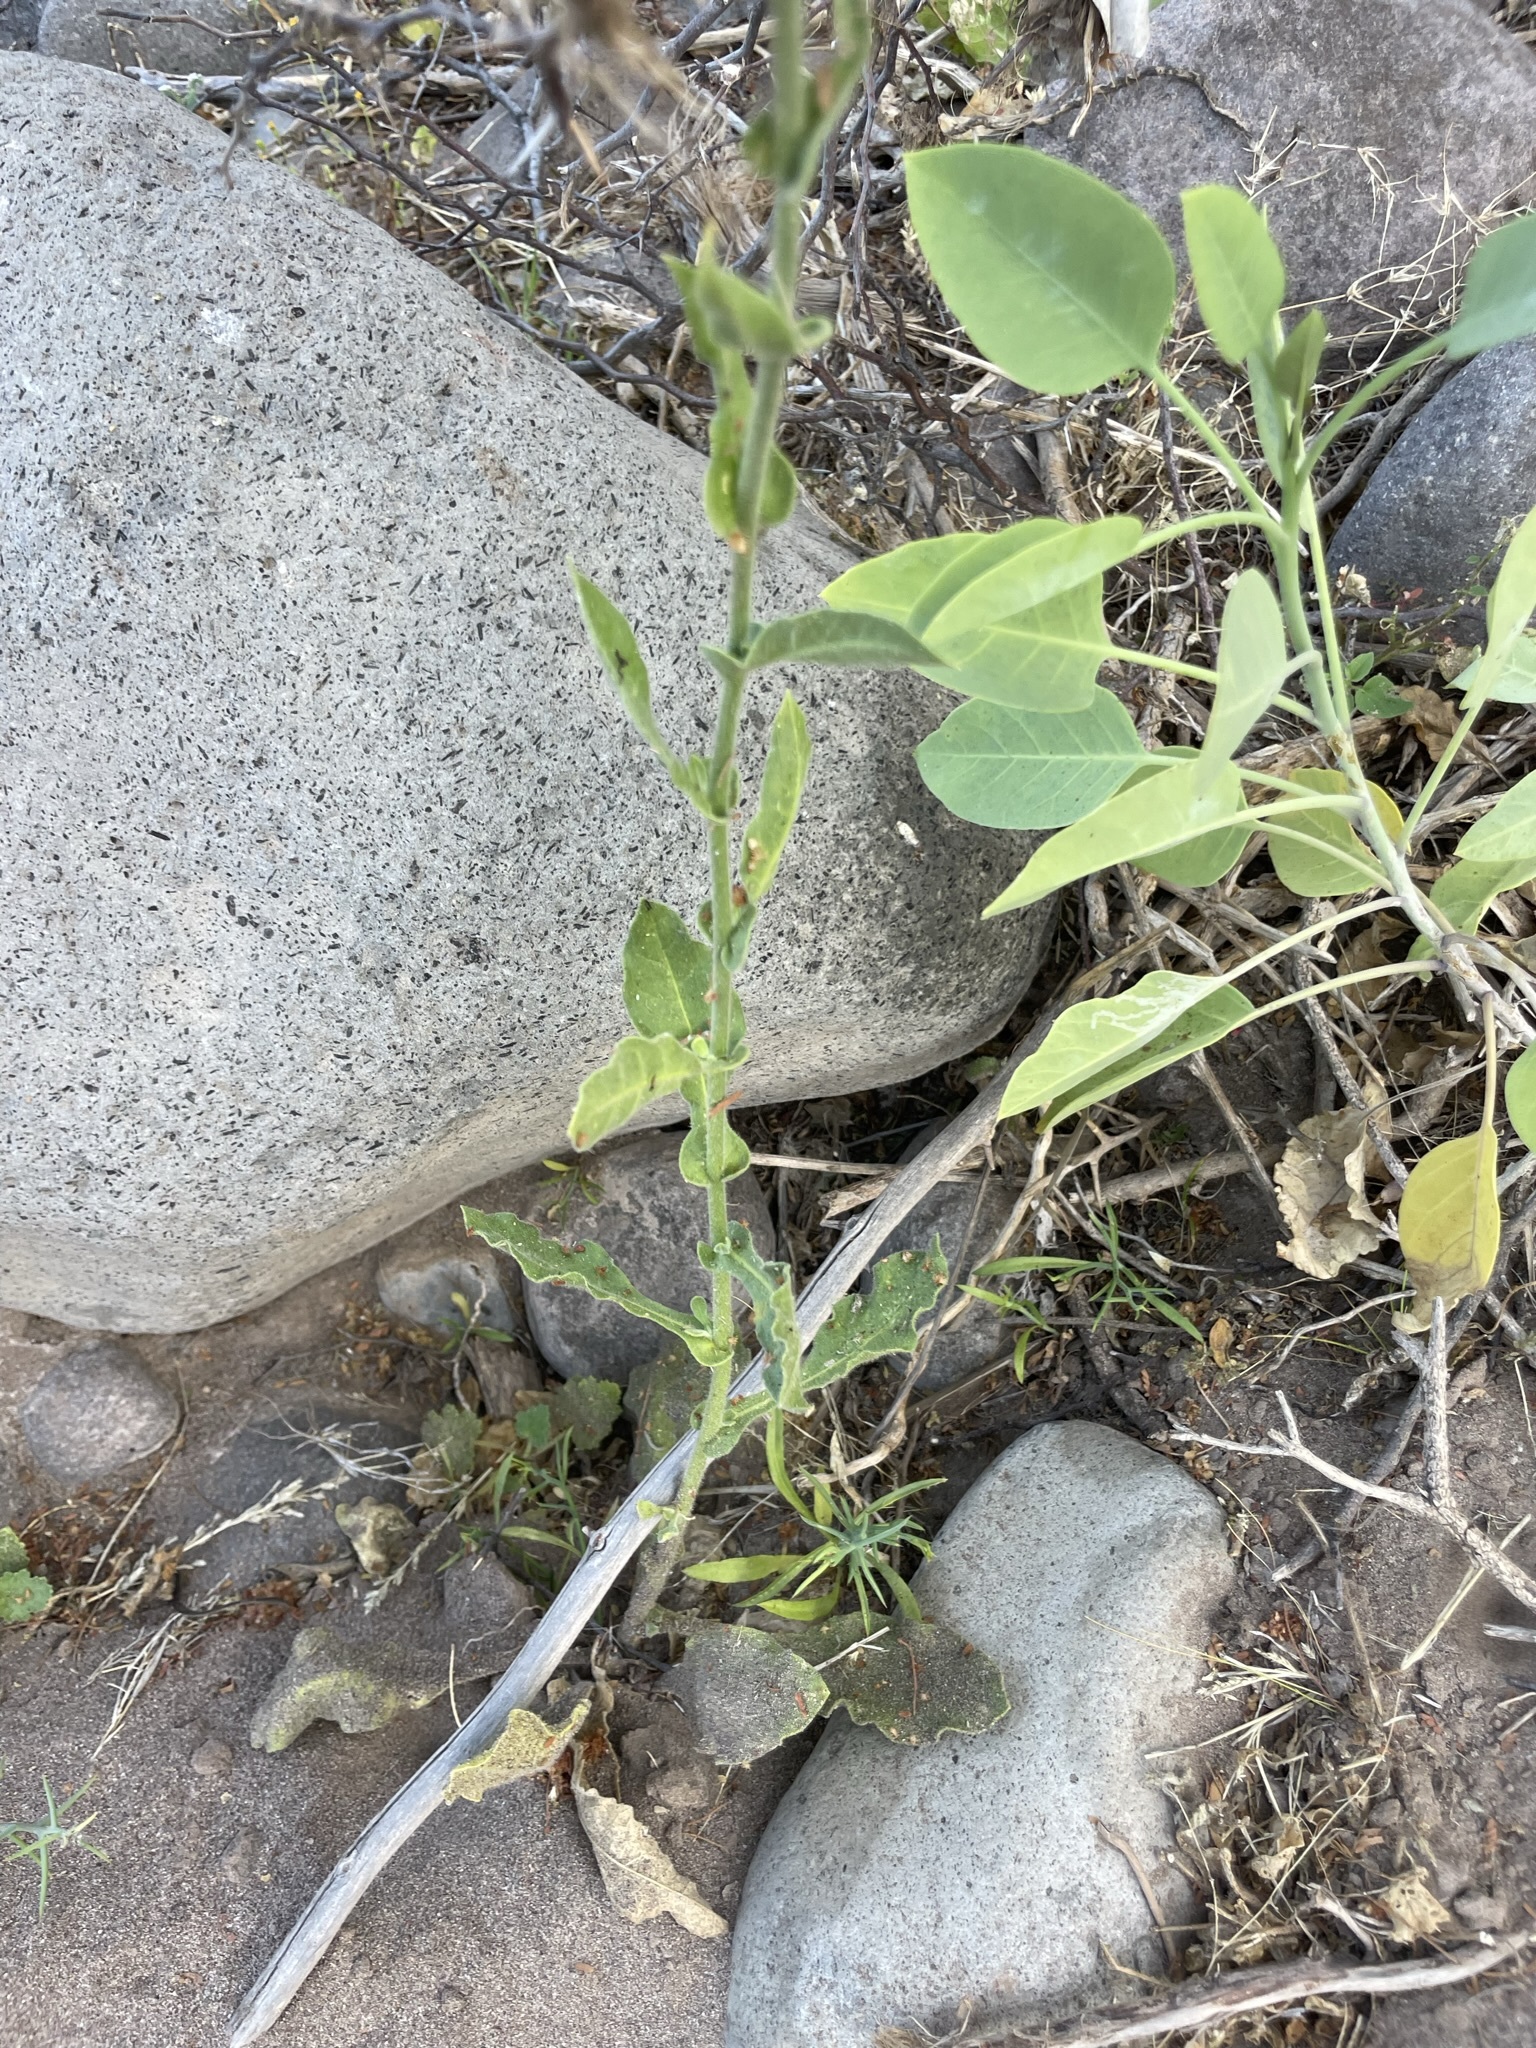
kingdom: Plantae
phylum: Tracheophyta
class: Magnoliopsida
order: Solanales
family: Solanaceae
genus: Nicotiana
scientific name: Nicotiana obtusifolia
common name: Desert tobacco
